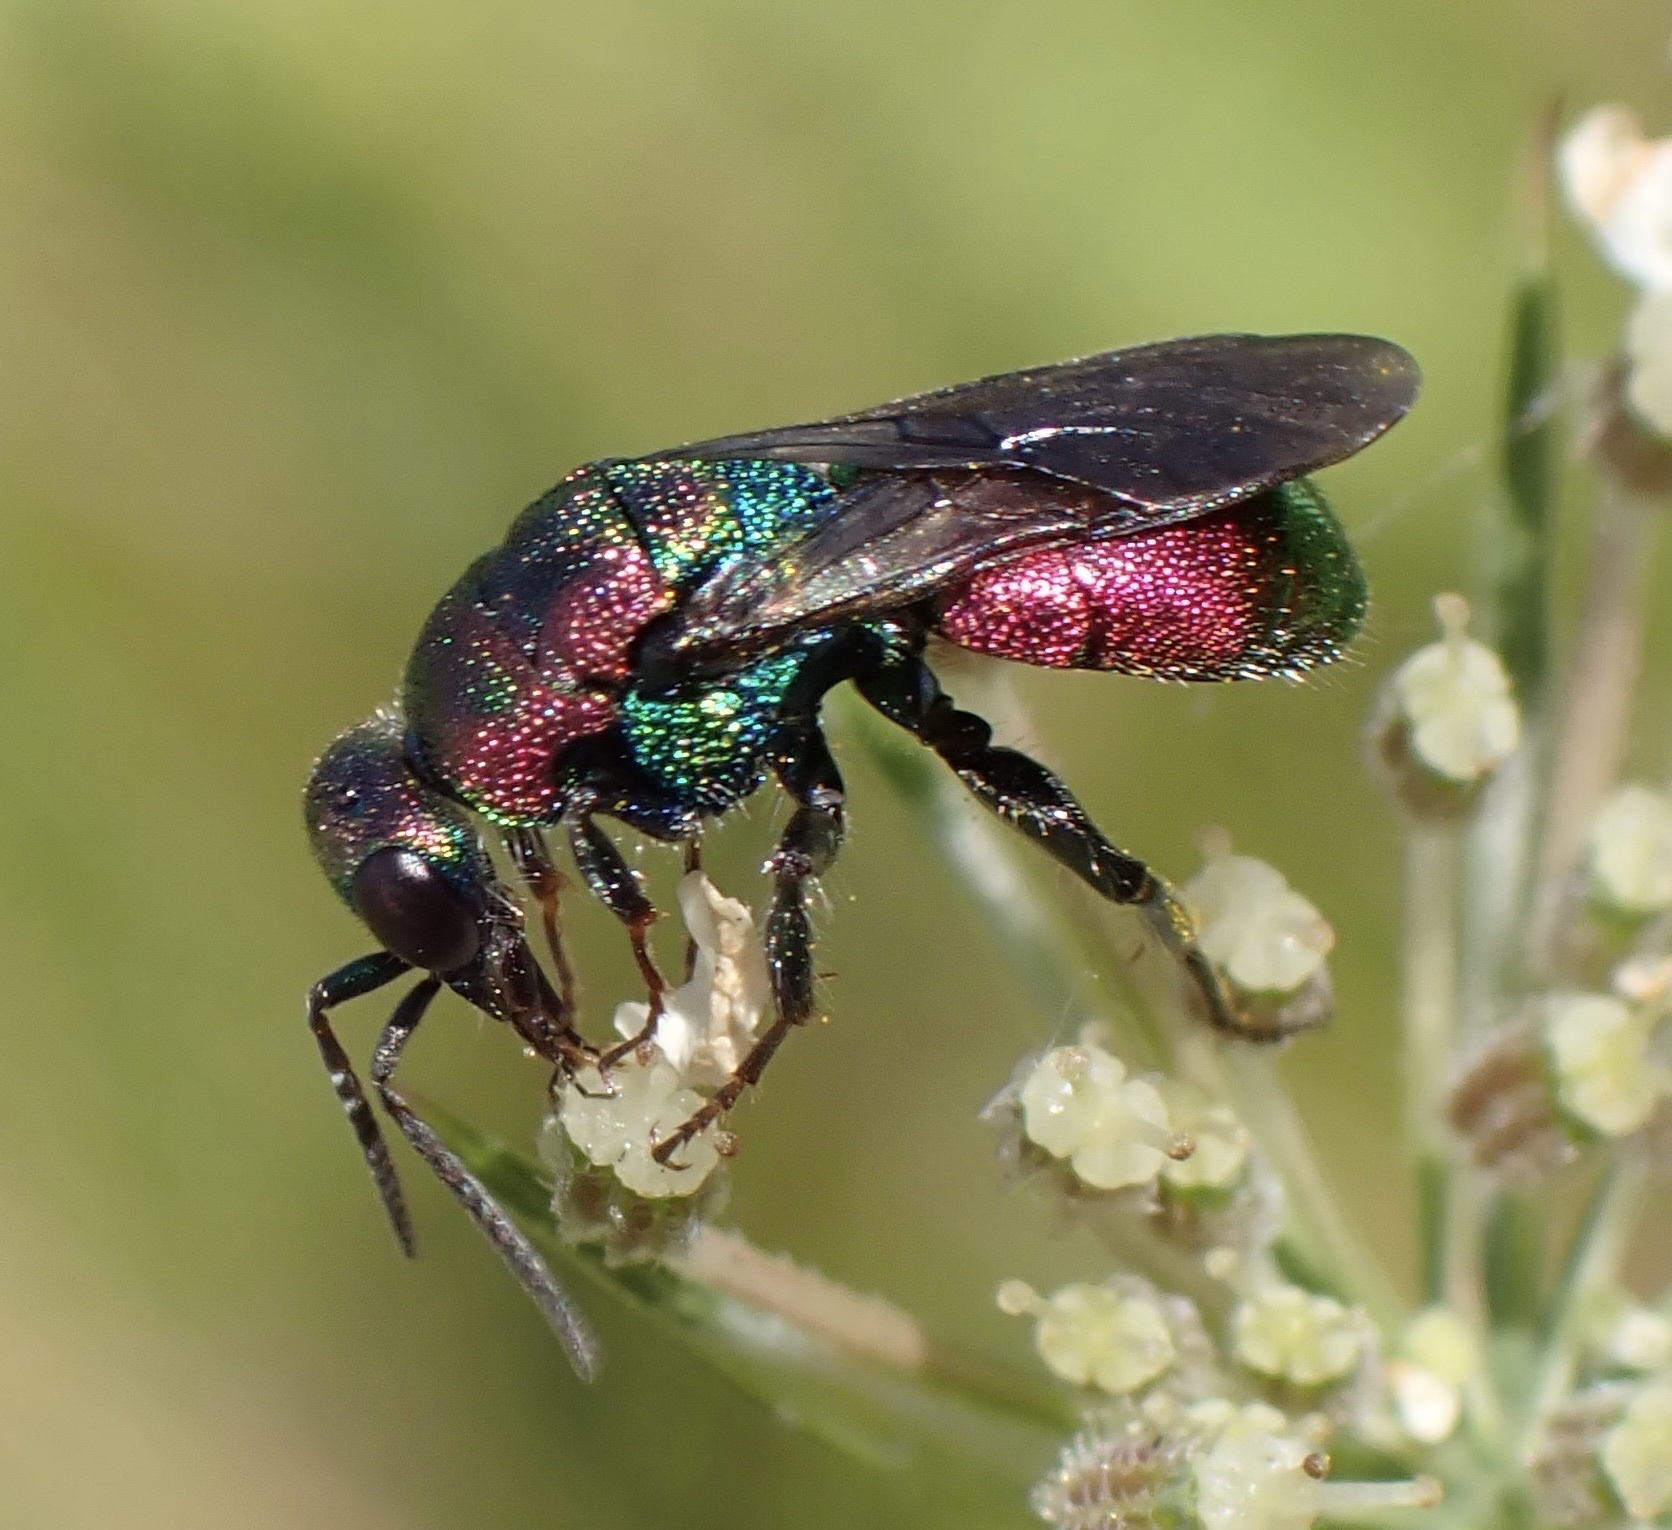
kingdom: Animalia
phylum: Arthropoda
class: Insecta
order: Hymenoptera
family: Chrysididae
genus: Hedychrum
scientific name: Hedychrum rutilans
